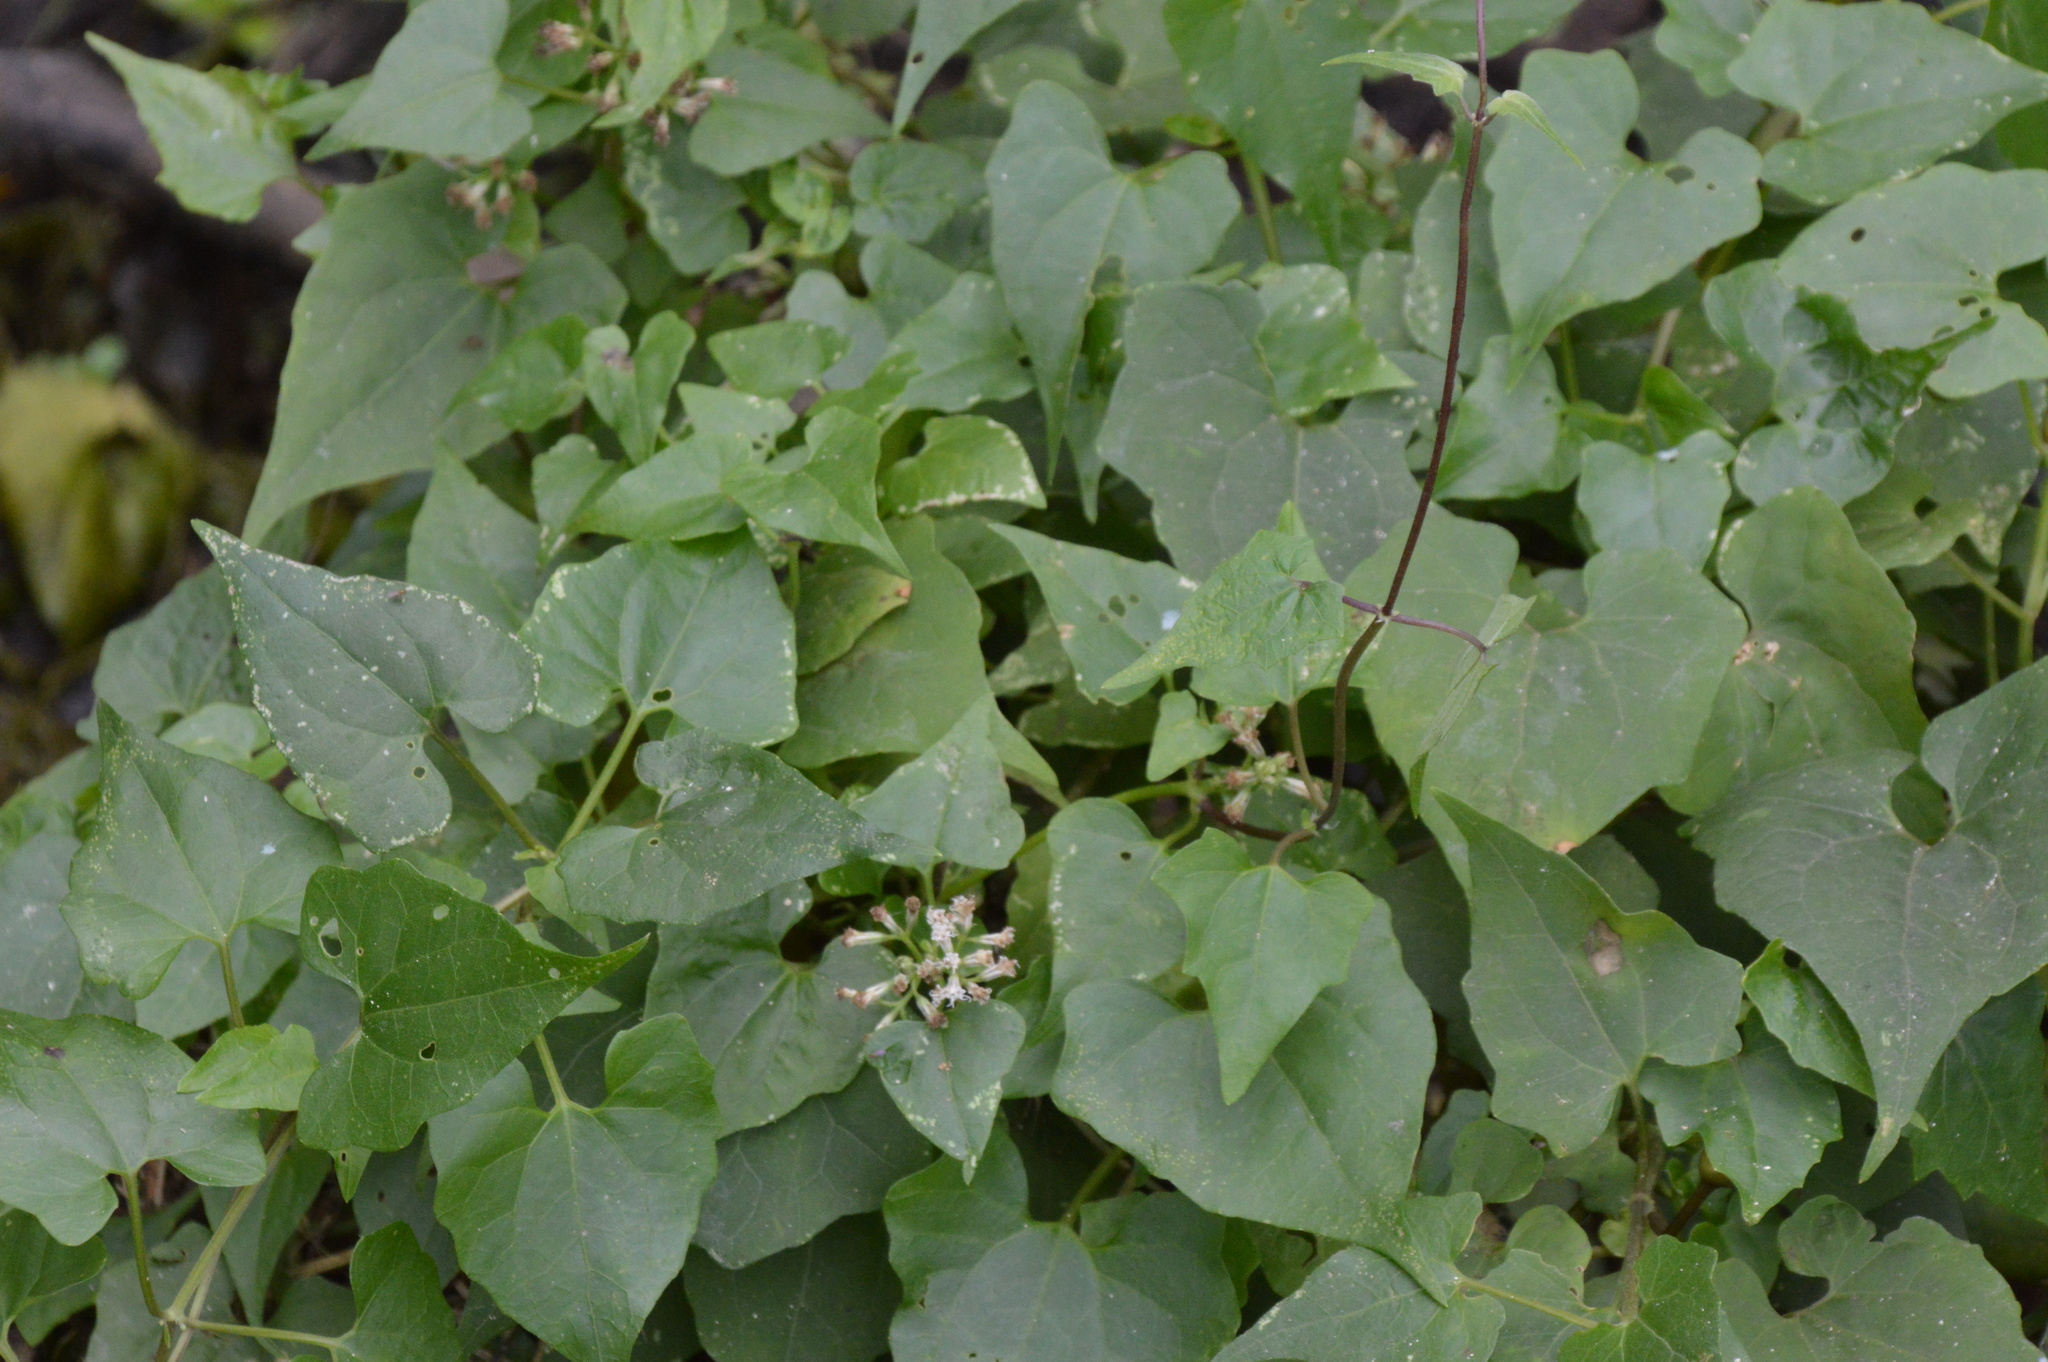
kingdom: Plantae
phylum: Tracheophyta
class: Magnoliopsida
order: Asterales
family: Asteraceae
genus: Mikania
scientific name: Mikania scandens
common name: Climbing hempvine
